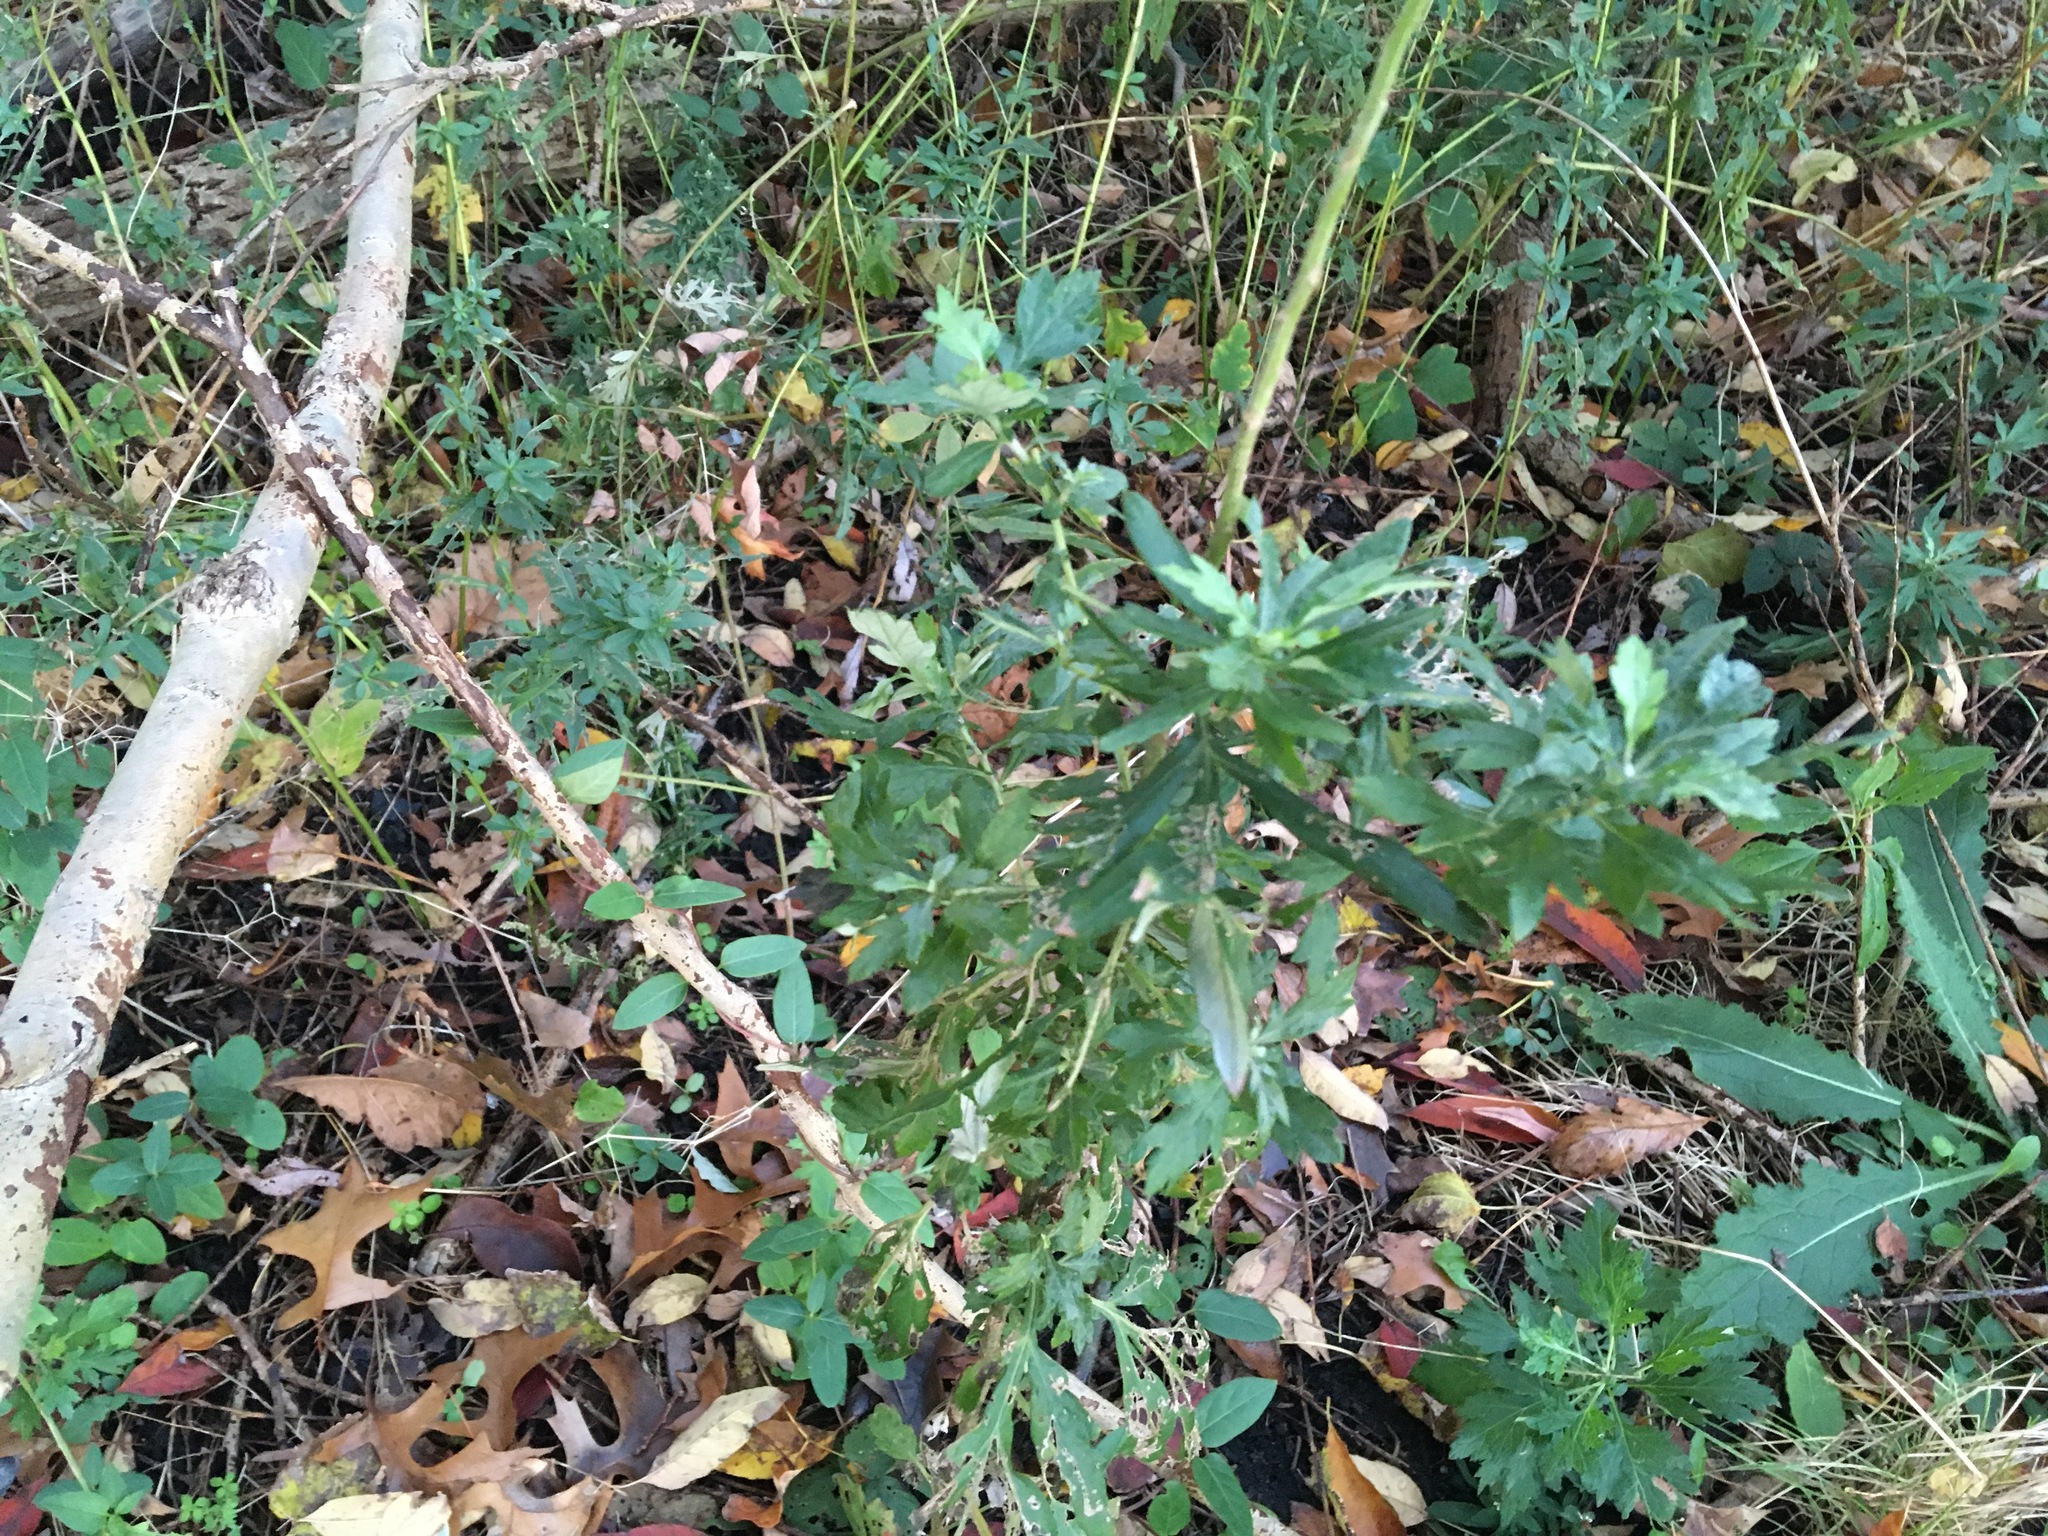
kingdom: Plantae
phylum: Tracheophyta
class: Magnoliopsida
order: Asterales
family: Asteraceae
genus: Artemisia
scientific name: Artemisia vulgaris
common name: Mugwort
